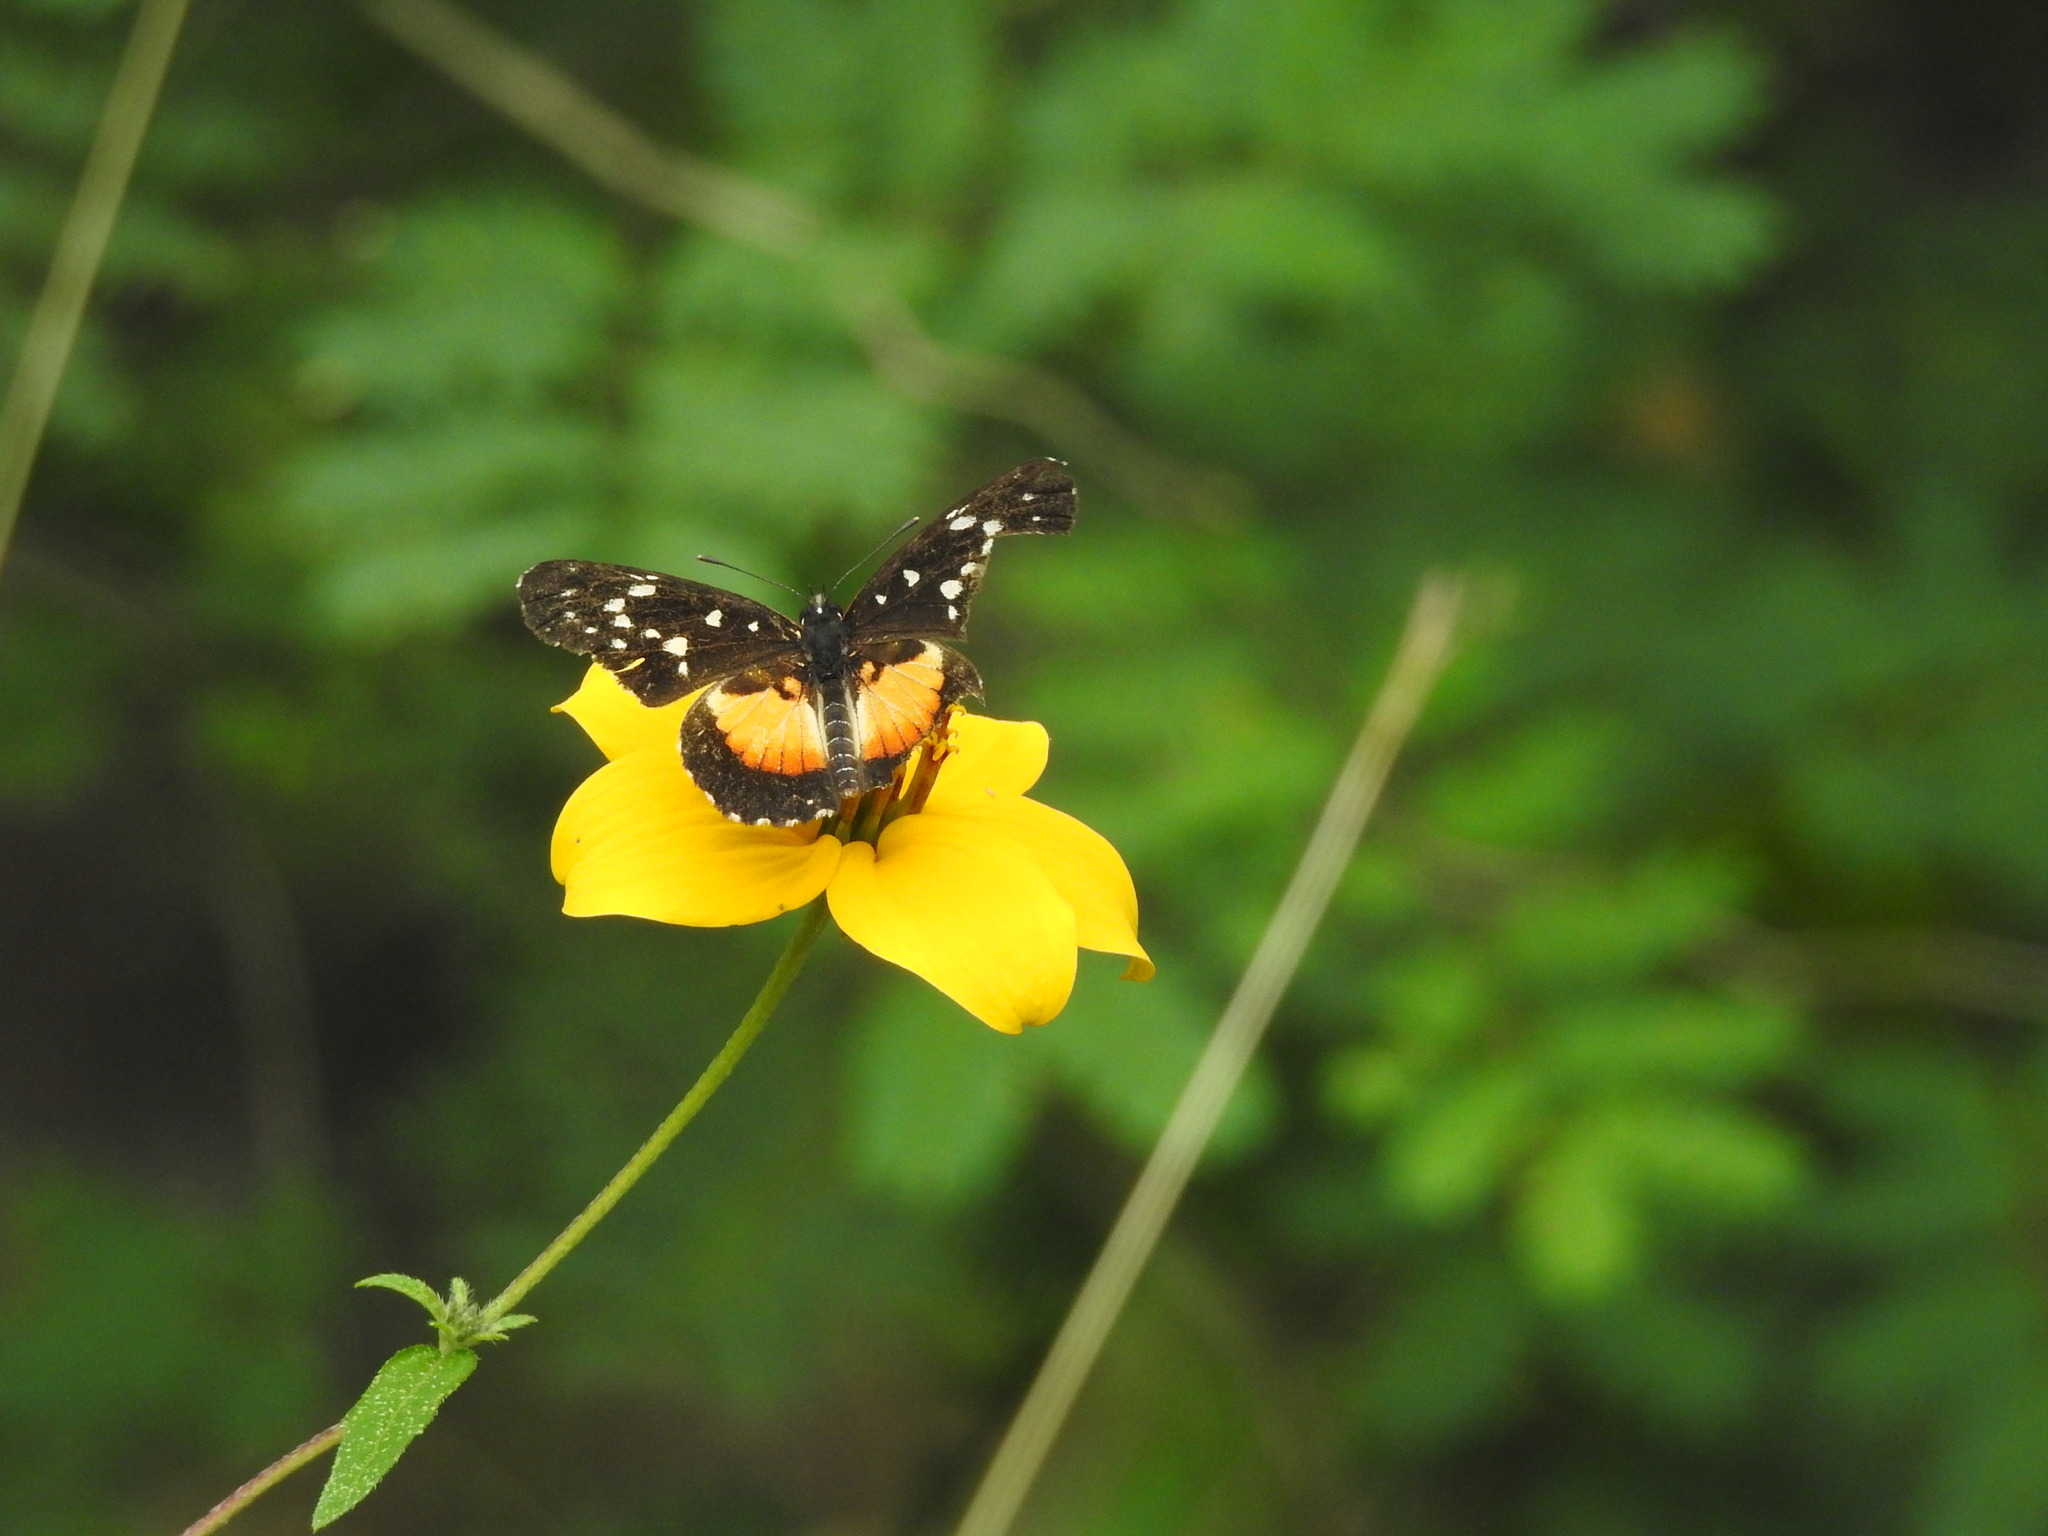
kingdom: Animalia
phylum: Arthropoda
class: Insecta
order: Lepidoptera
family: Nymphalidae
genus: Chlosyne
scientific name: Chlosyne rosita
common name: Rosita patch
